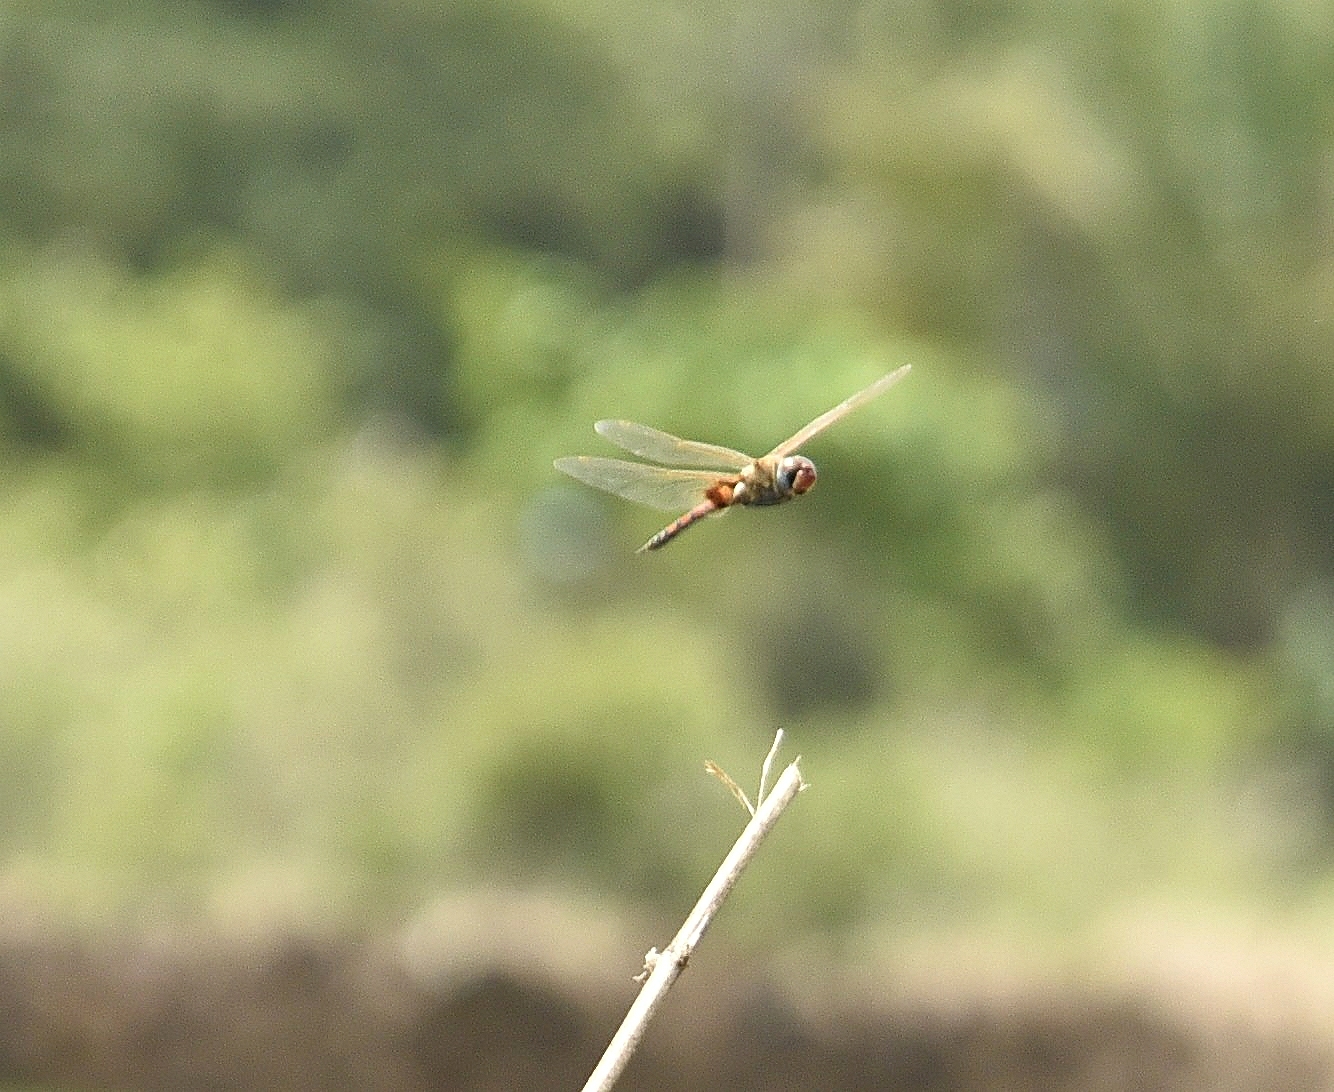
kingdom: Animalia
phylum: Arthropoda
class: Insecta
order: Odonata
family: Libellulidae
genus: Tramea
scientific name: Tramea basilaris
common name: Keyhole glider
